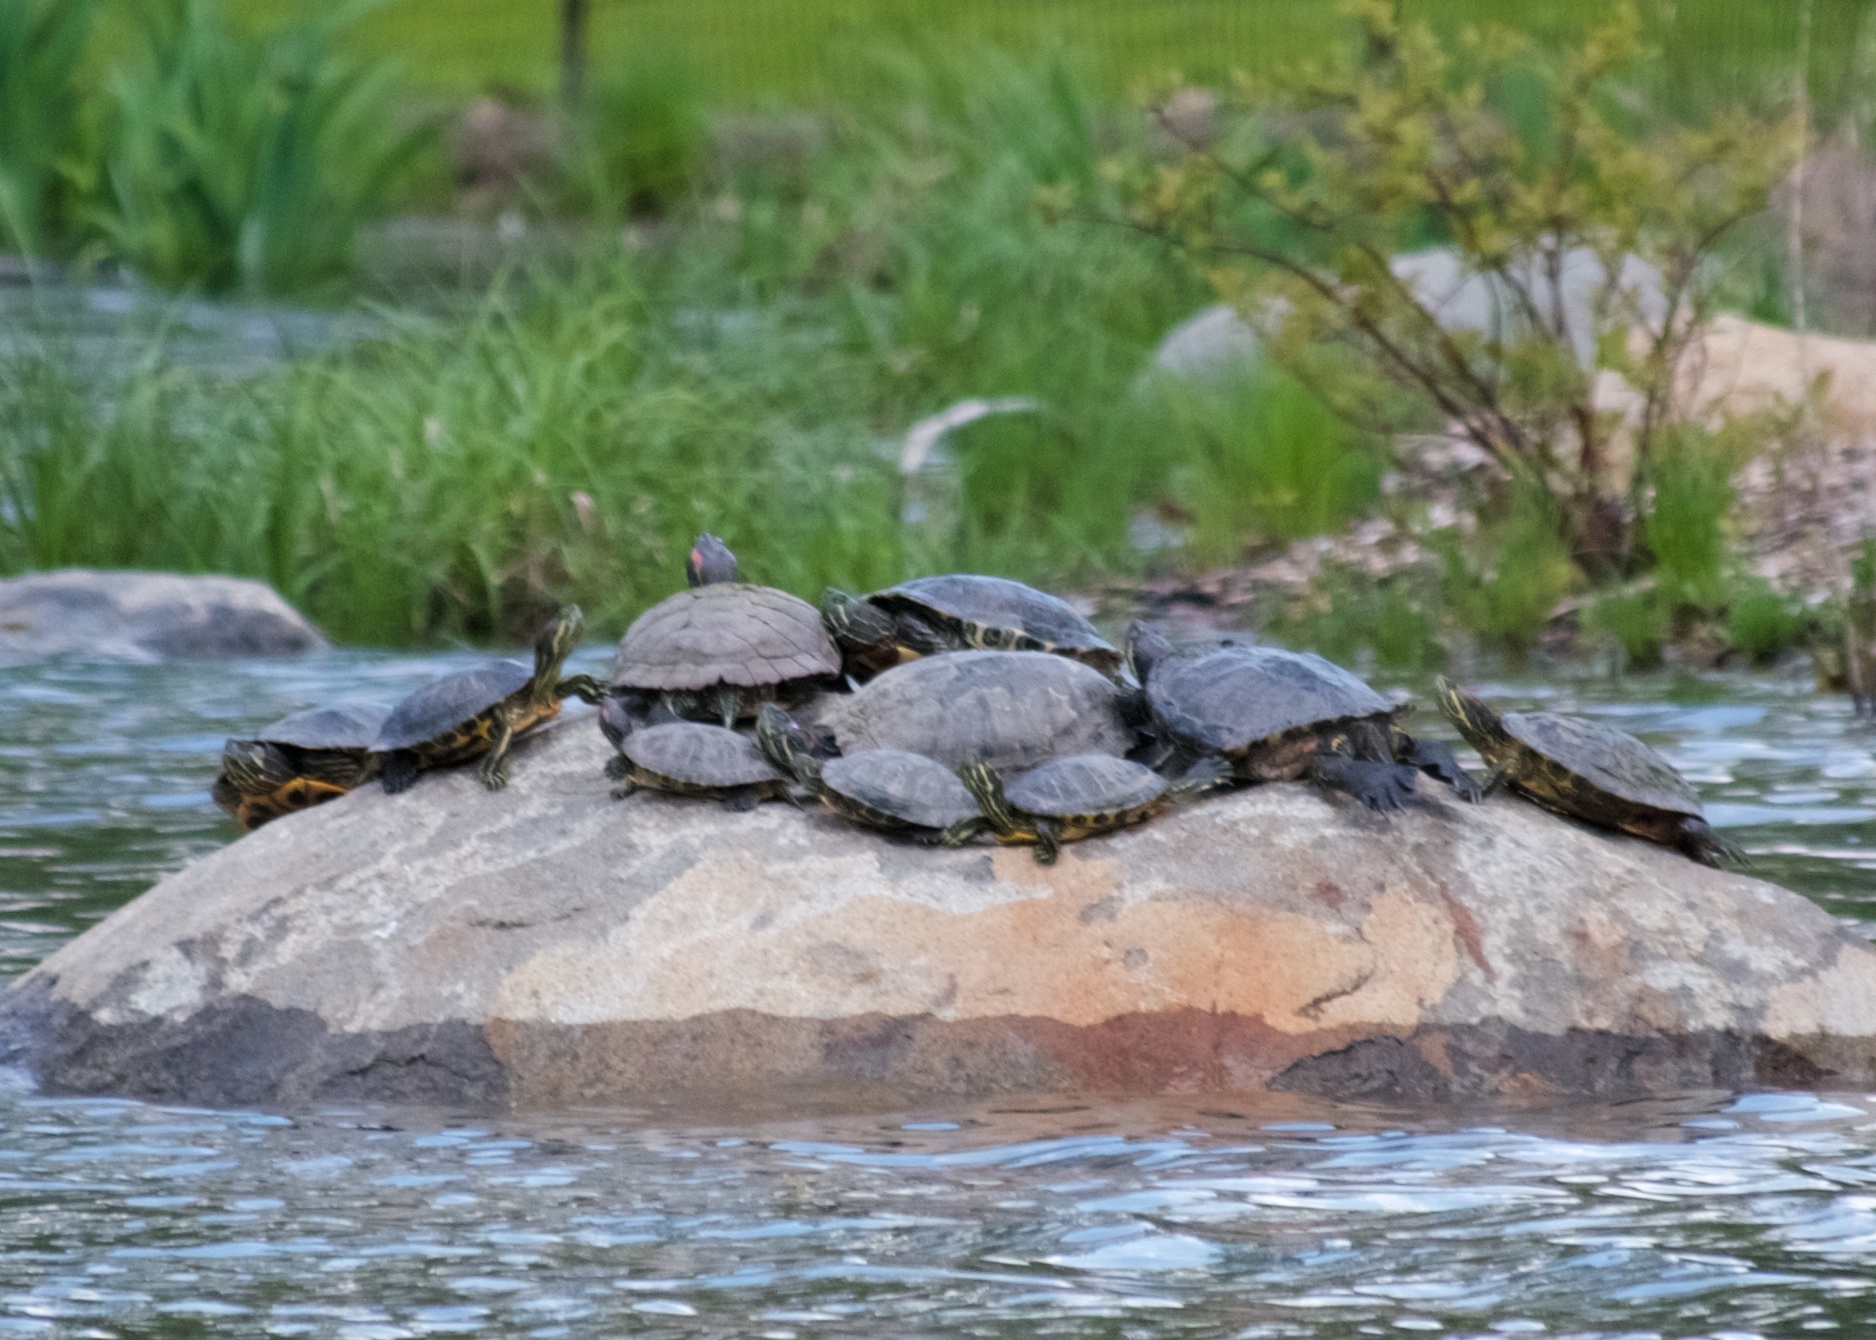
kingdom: Animalia
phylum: Chordata
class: Testudines
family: Emydidae
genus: Trachemys
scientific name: Trachemys scripta
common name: Slider
